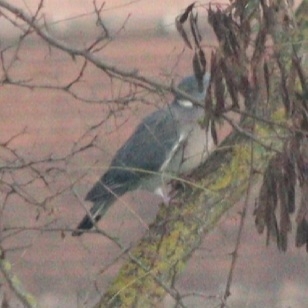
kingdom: Animalia
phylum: Chordata
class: Aves
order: Columbiformes
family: Columbidae
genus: Columba
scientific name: Columba palumbus
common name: Common wood pigeon
